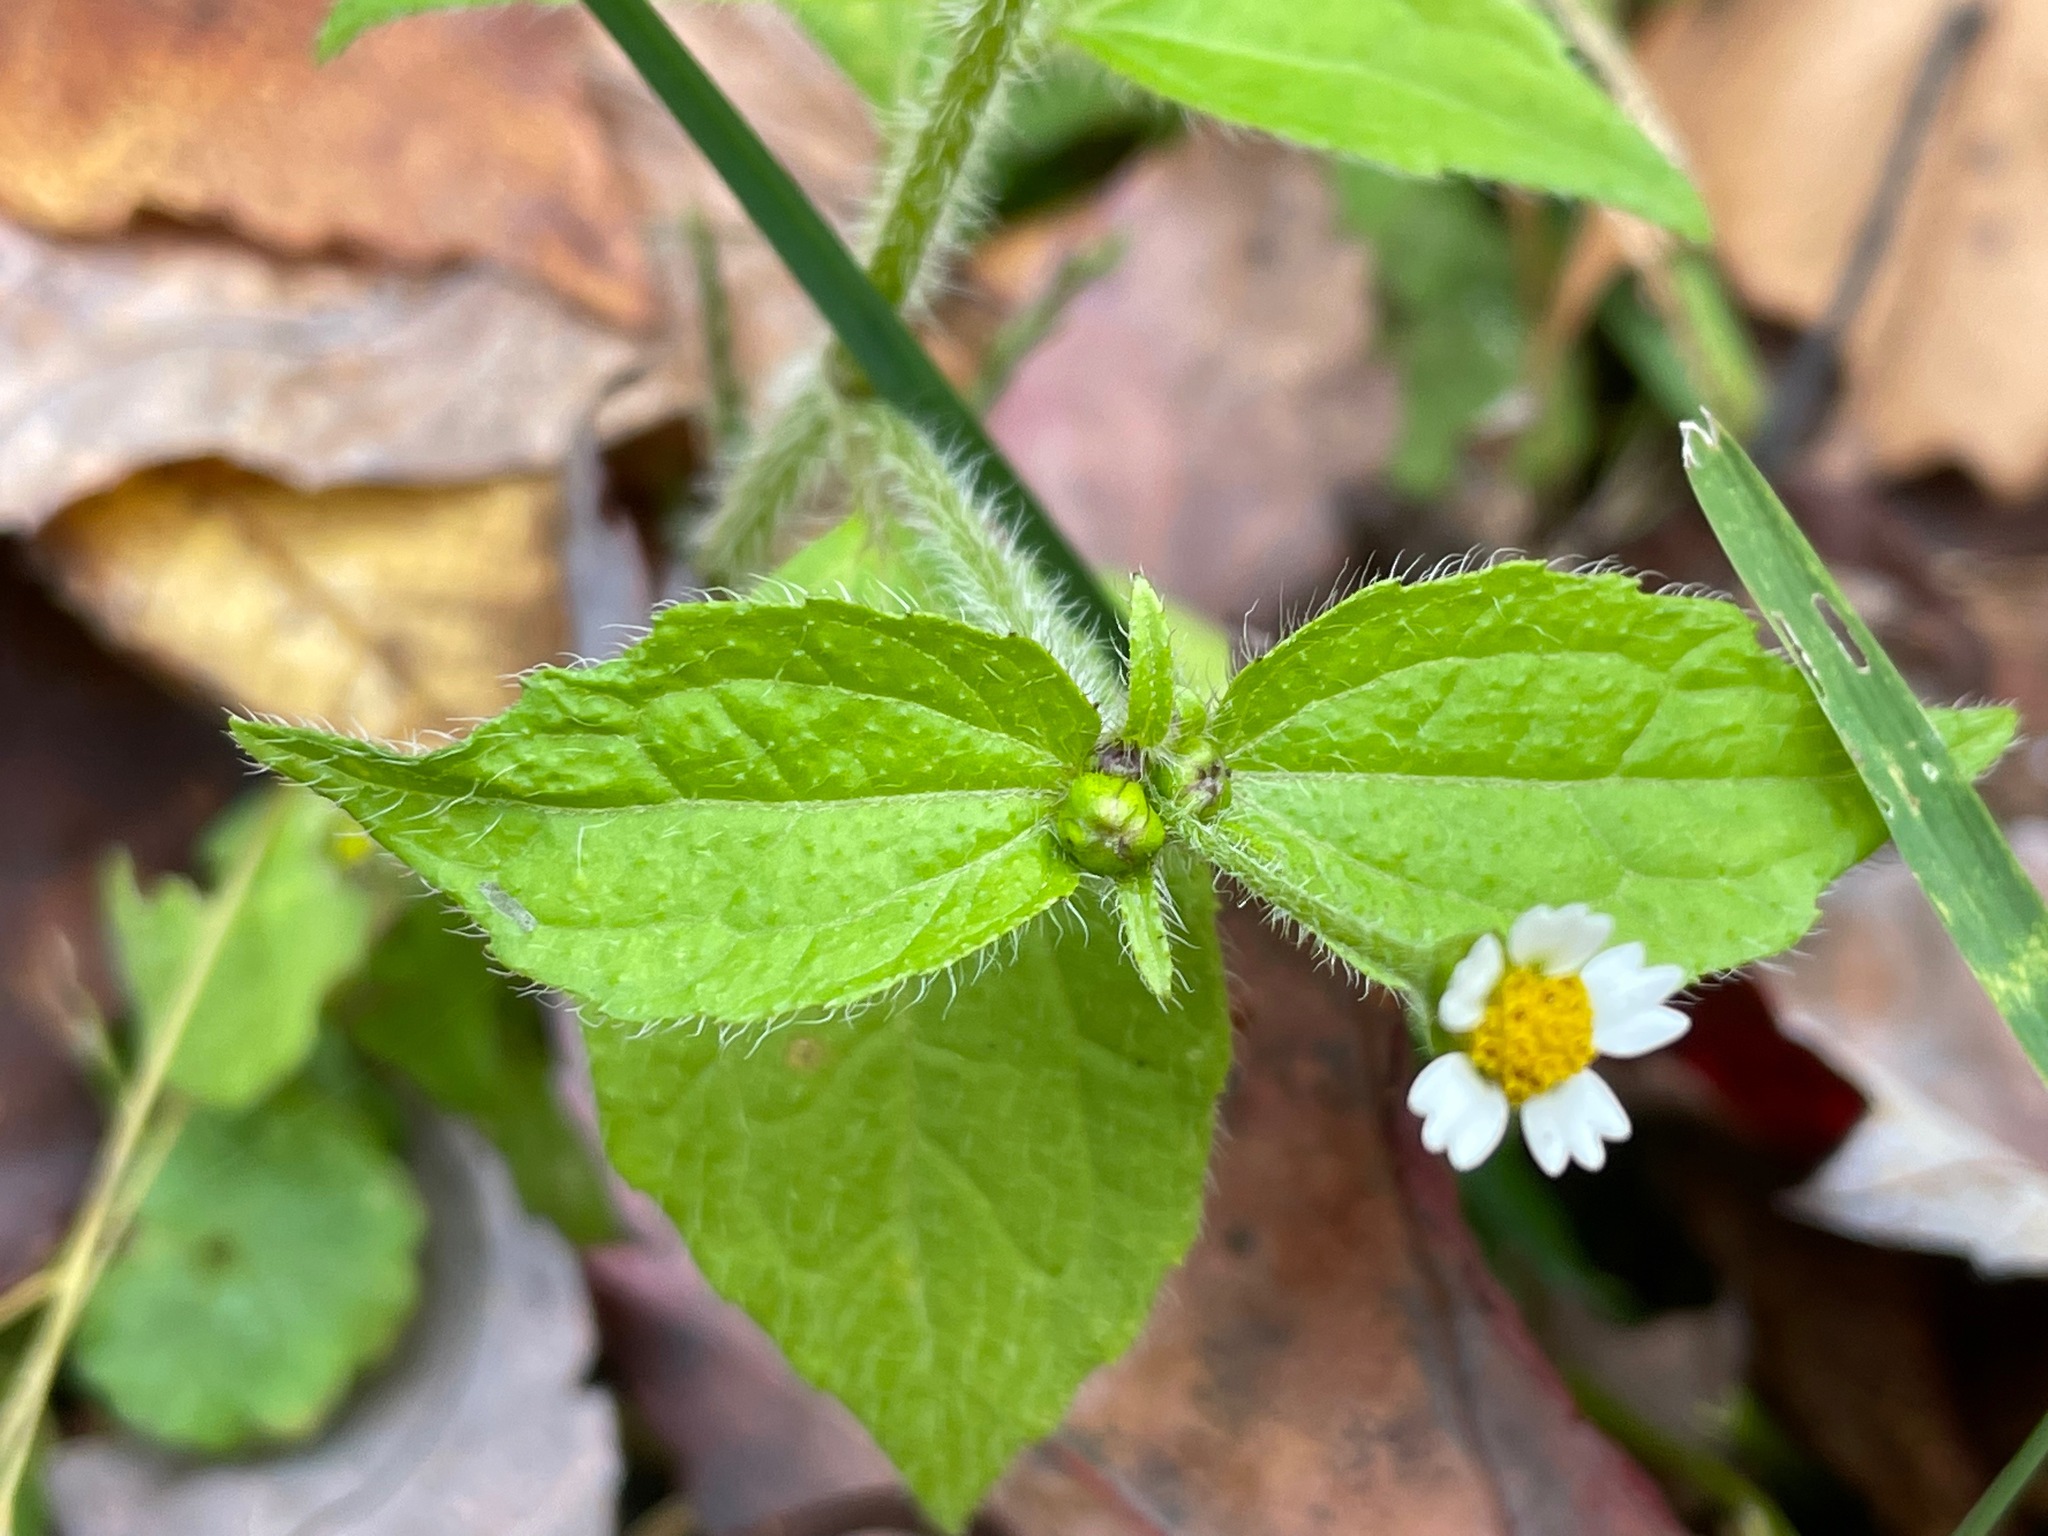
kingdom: Plantae
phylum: Tracheophyta
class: Magnoliopsida
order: Asterales
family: Asteraceae
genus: Galinsoga
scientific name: Galinsoga quadriradiata
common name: Shaggy soldier
